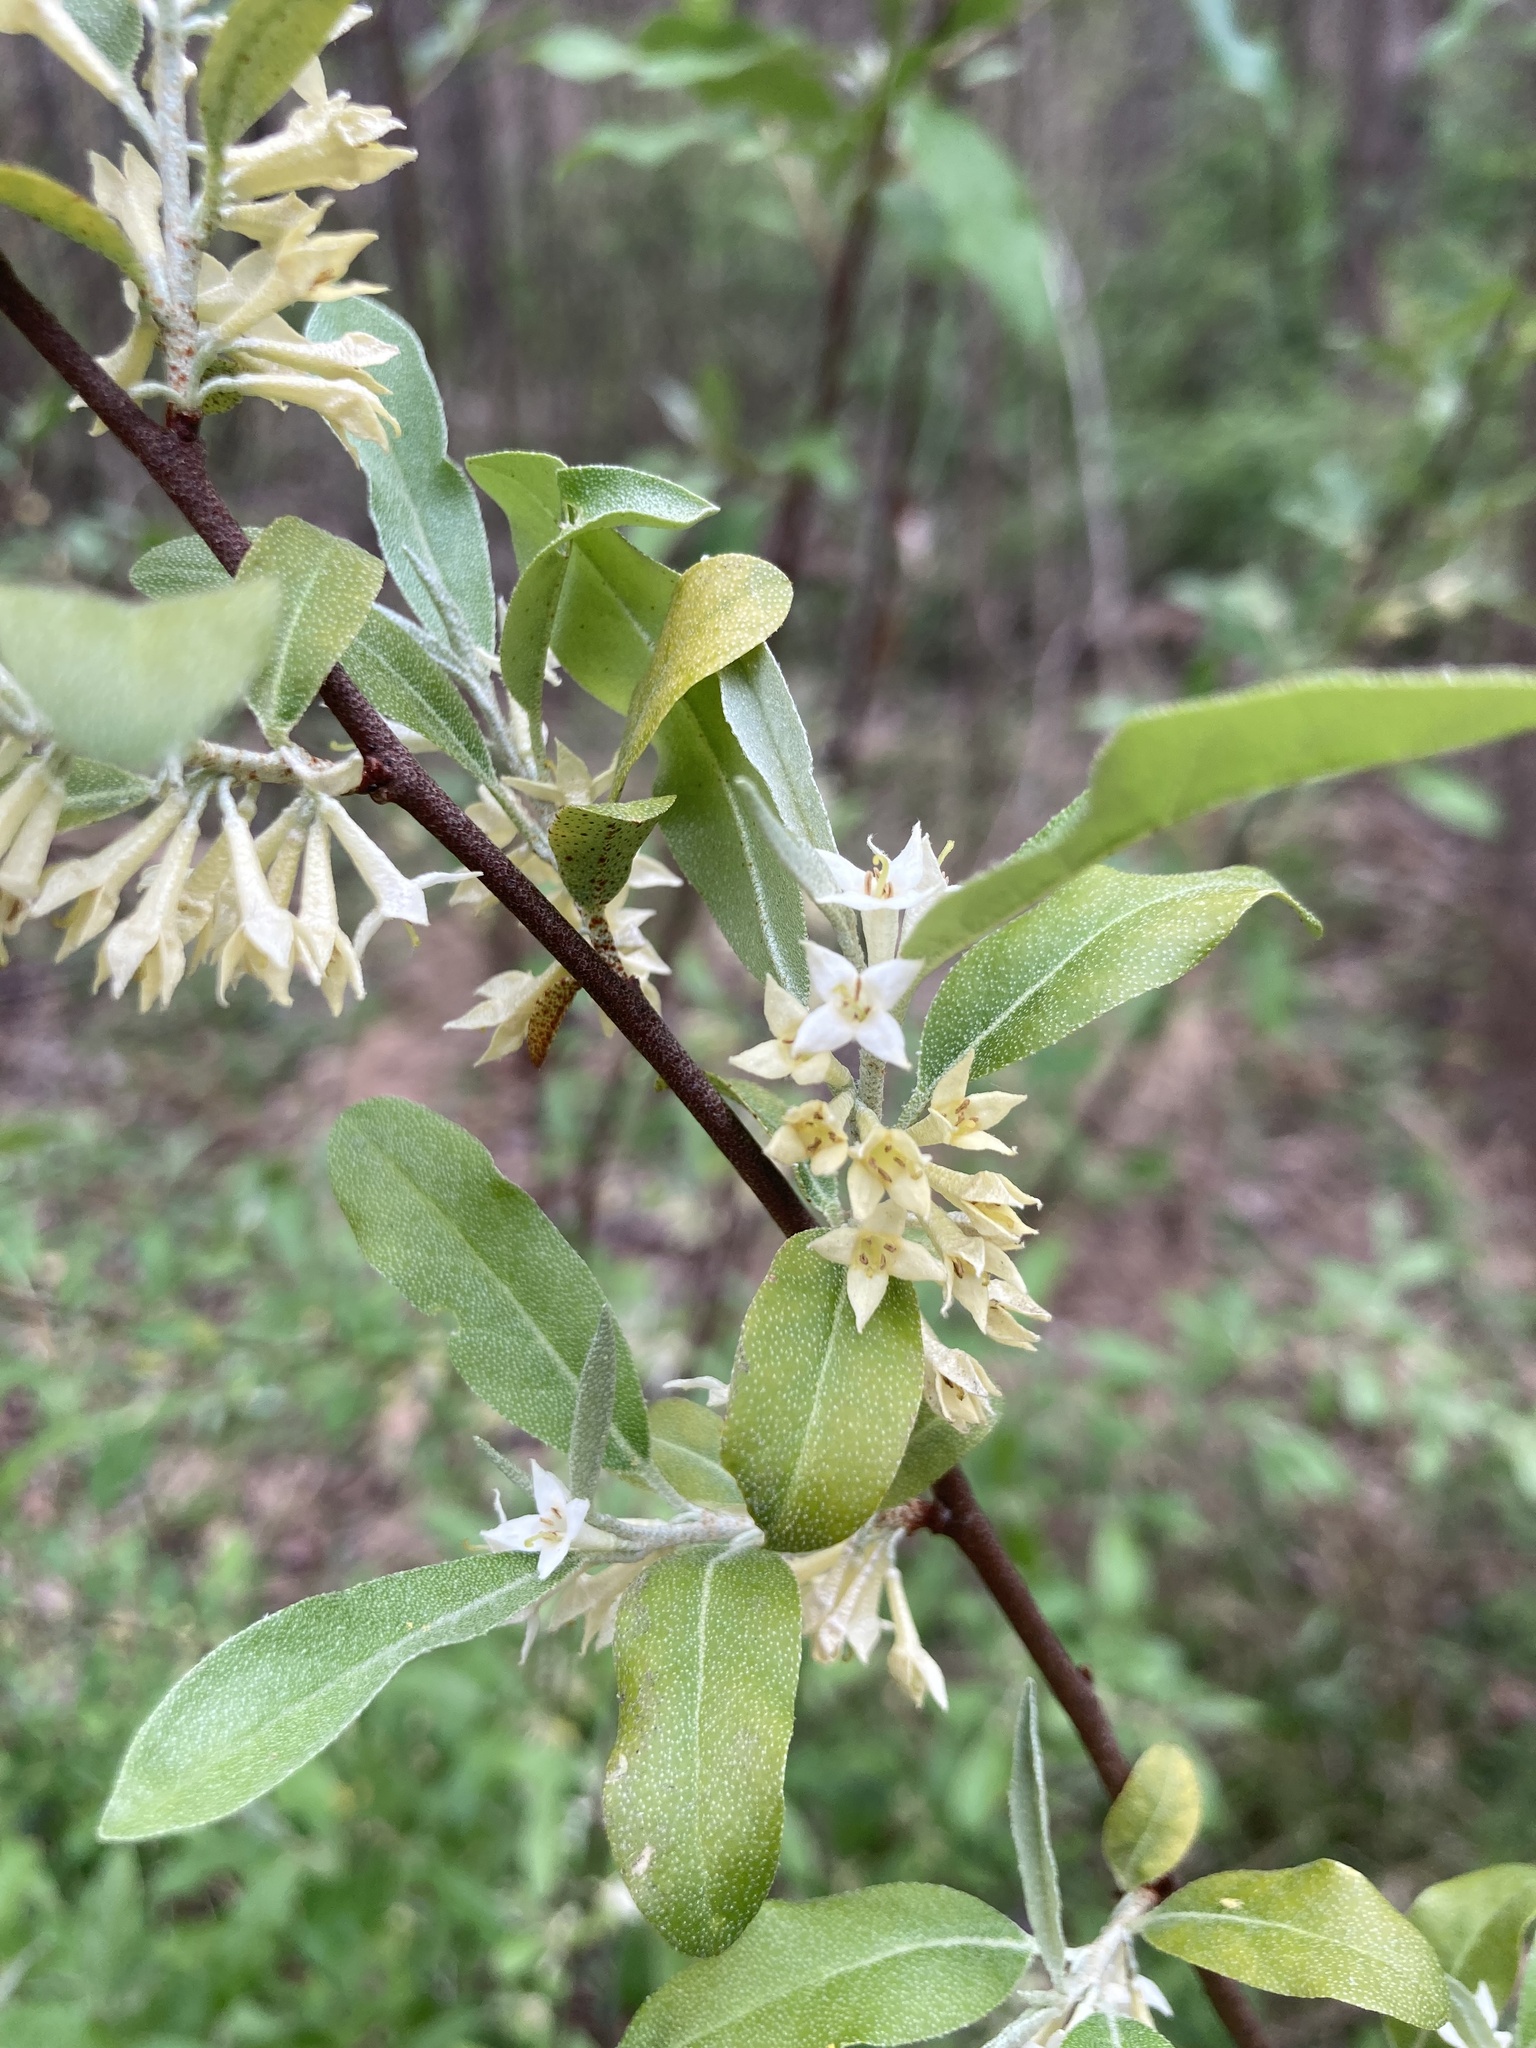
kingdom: Plantae
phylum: Tracheophyta
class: Magnoliopsida
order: Rosales
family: Elaeagnaceae
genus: Elaeagnus
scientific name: Elaeagnus umbellata
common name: Autumn olive
